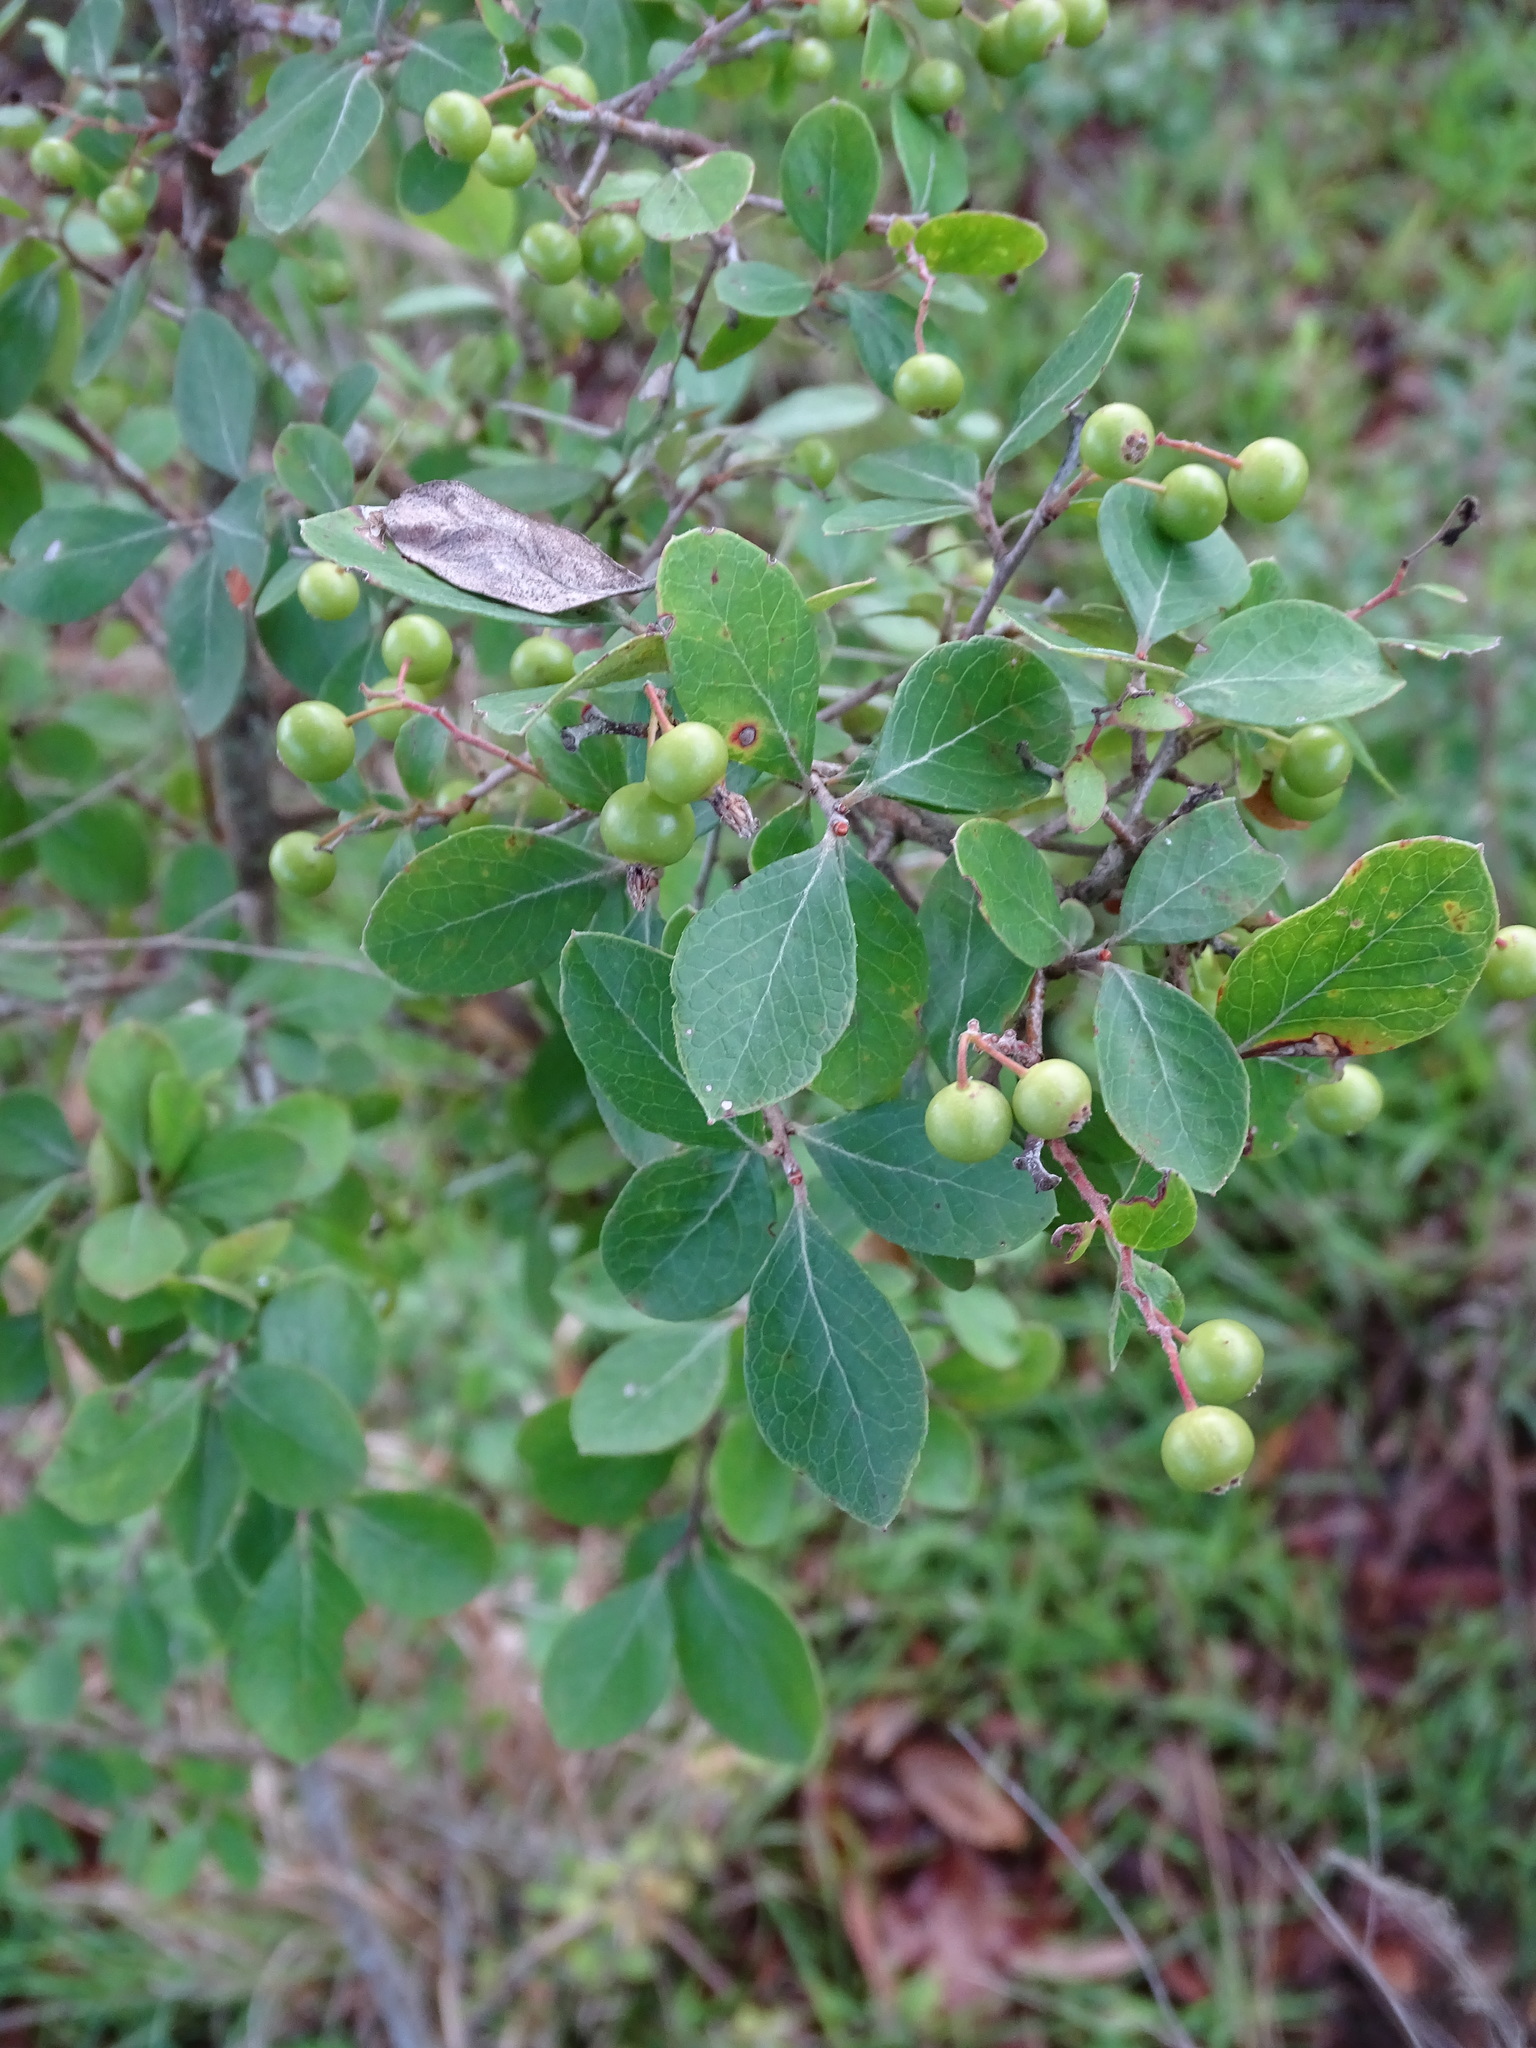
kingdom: Plantae
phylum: Tracheophyta
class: Magnoliopsida
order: Ericales
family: Ericaceae
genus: Vaccinium
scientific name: Vaccinium arboreum
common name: Farkleberry
